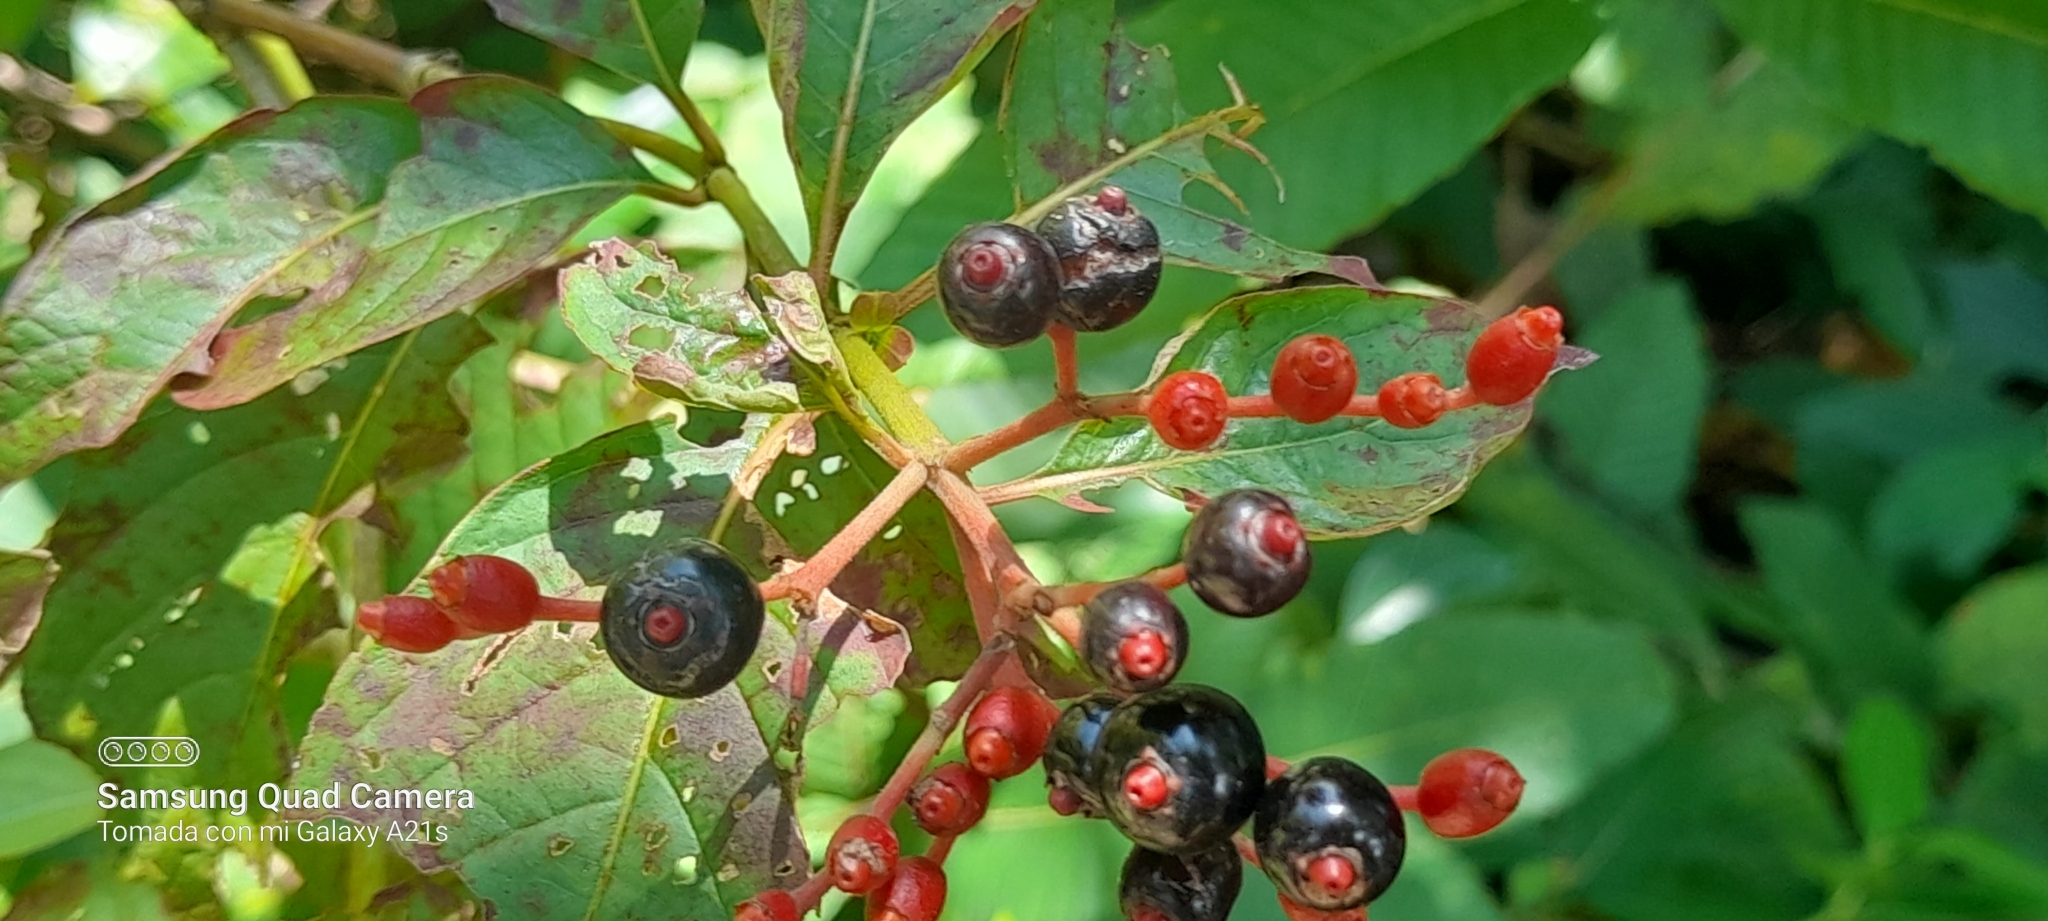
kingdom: Plantae
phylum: Tracheophyta
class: Magnoliopsida
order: Gentianales
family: Rubiaceae
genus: Hamelia
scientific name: Hamelia patens
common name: Redhead
